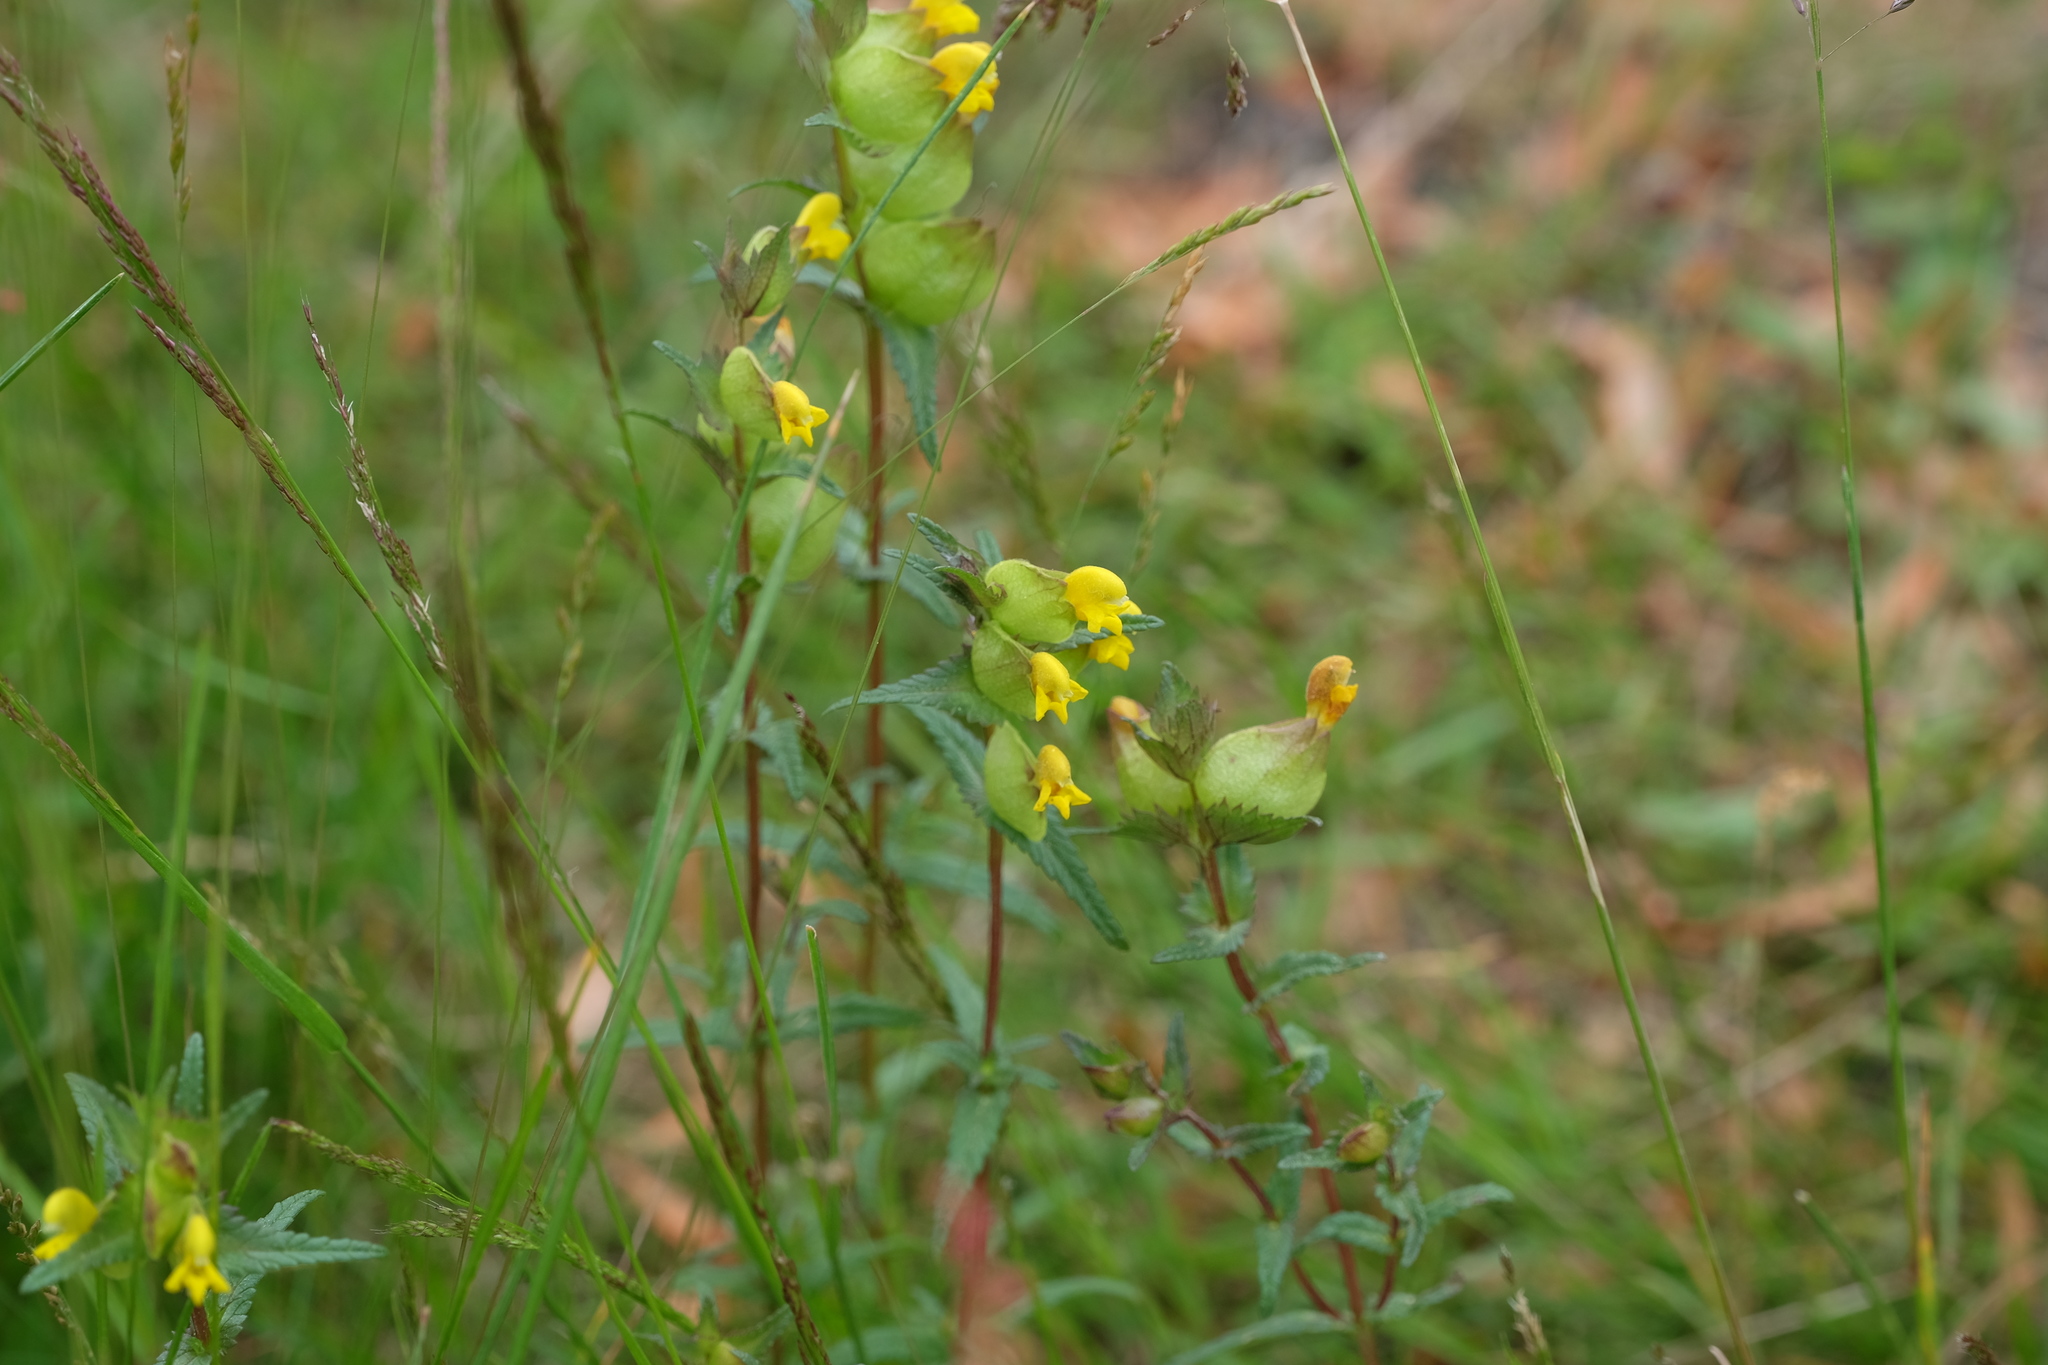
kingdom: Plantae
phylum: Tracheophyta
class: Magnoliopsida
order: Lamiales
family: Orobanchaceae
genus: Rhinanthus
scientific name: Rhinanthus minor
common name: Yellow-rattle
